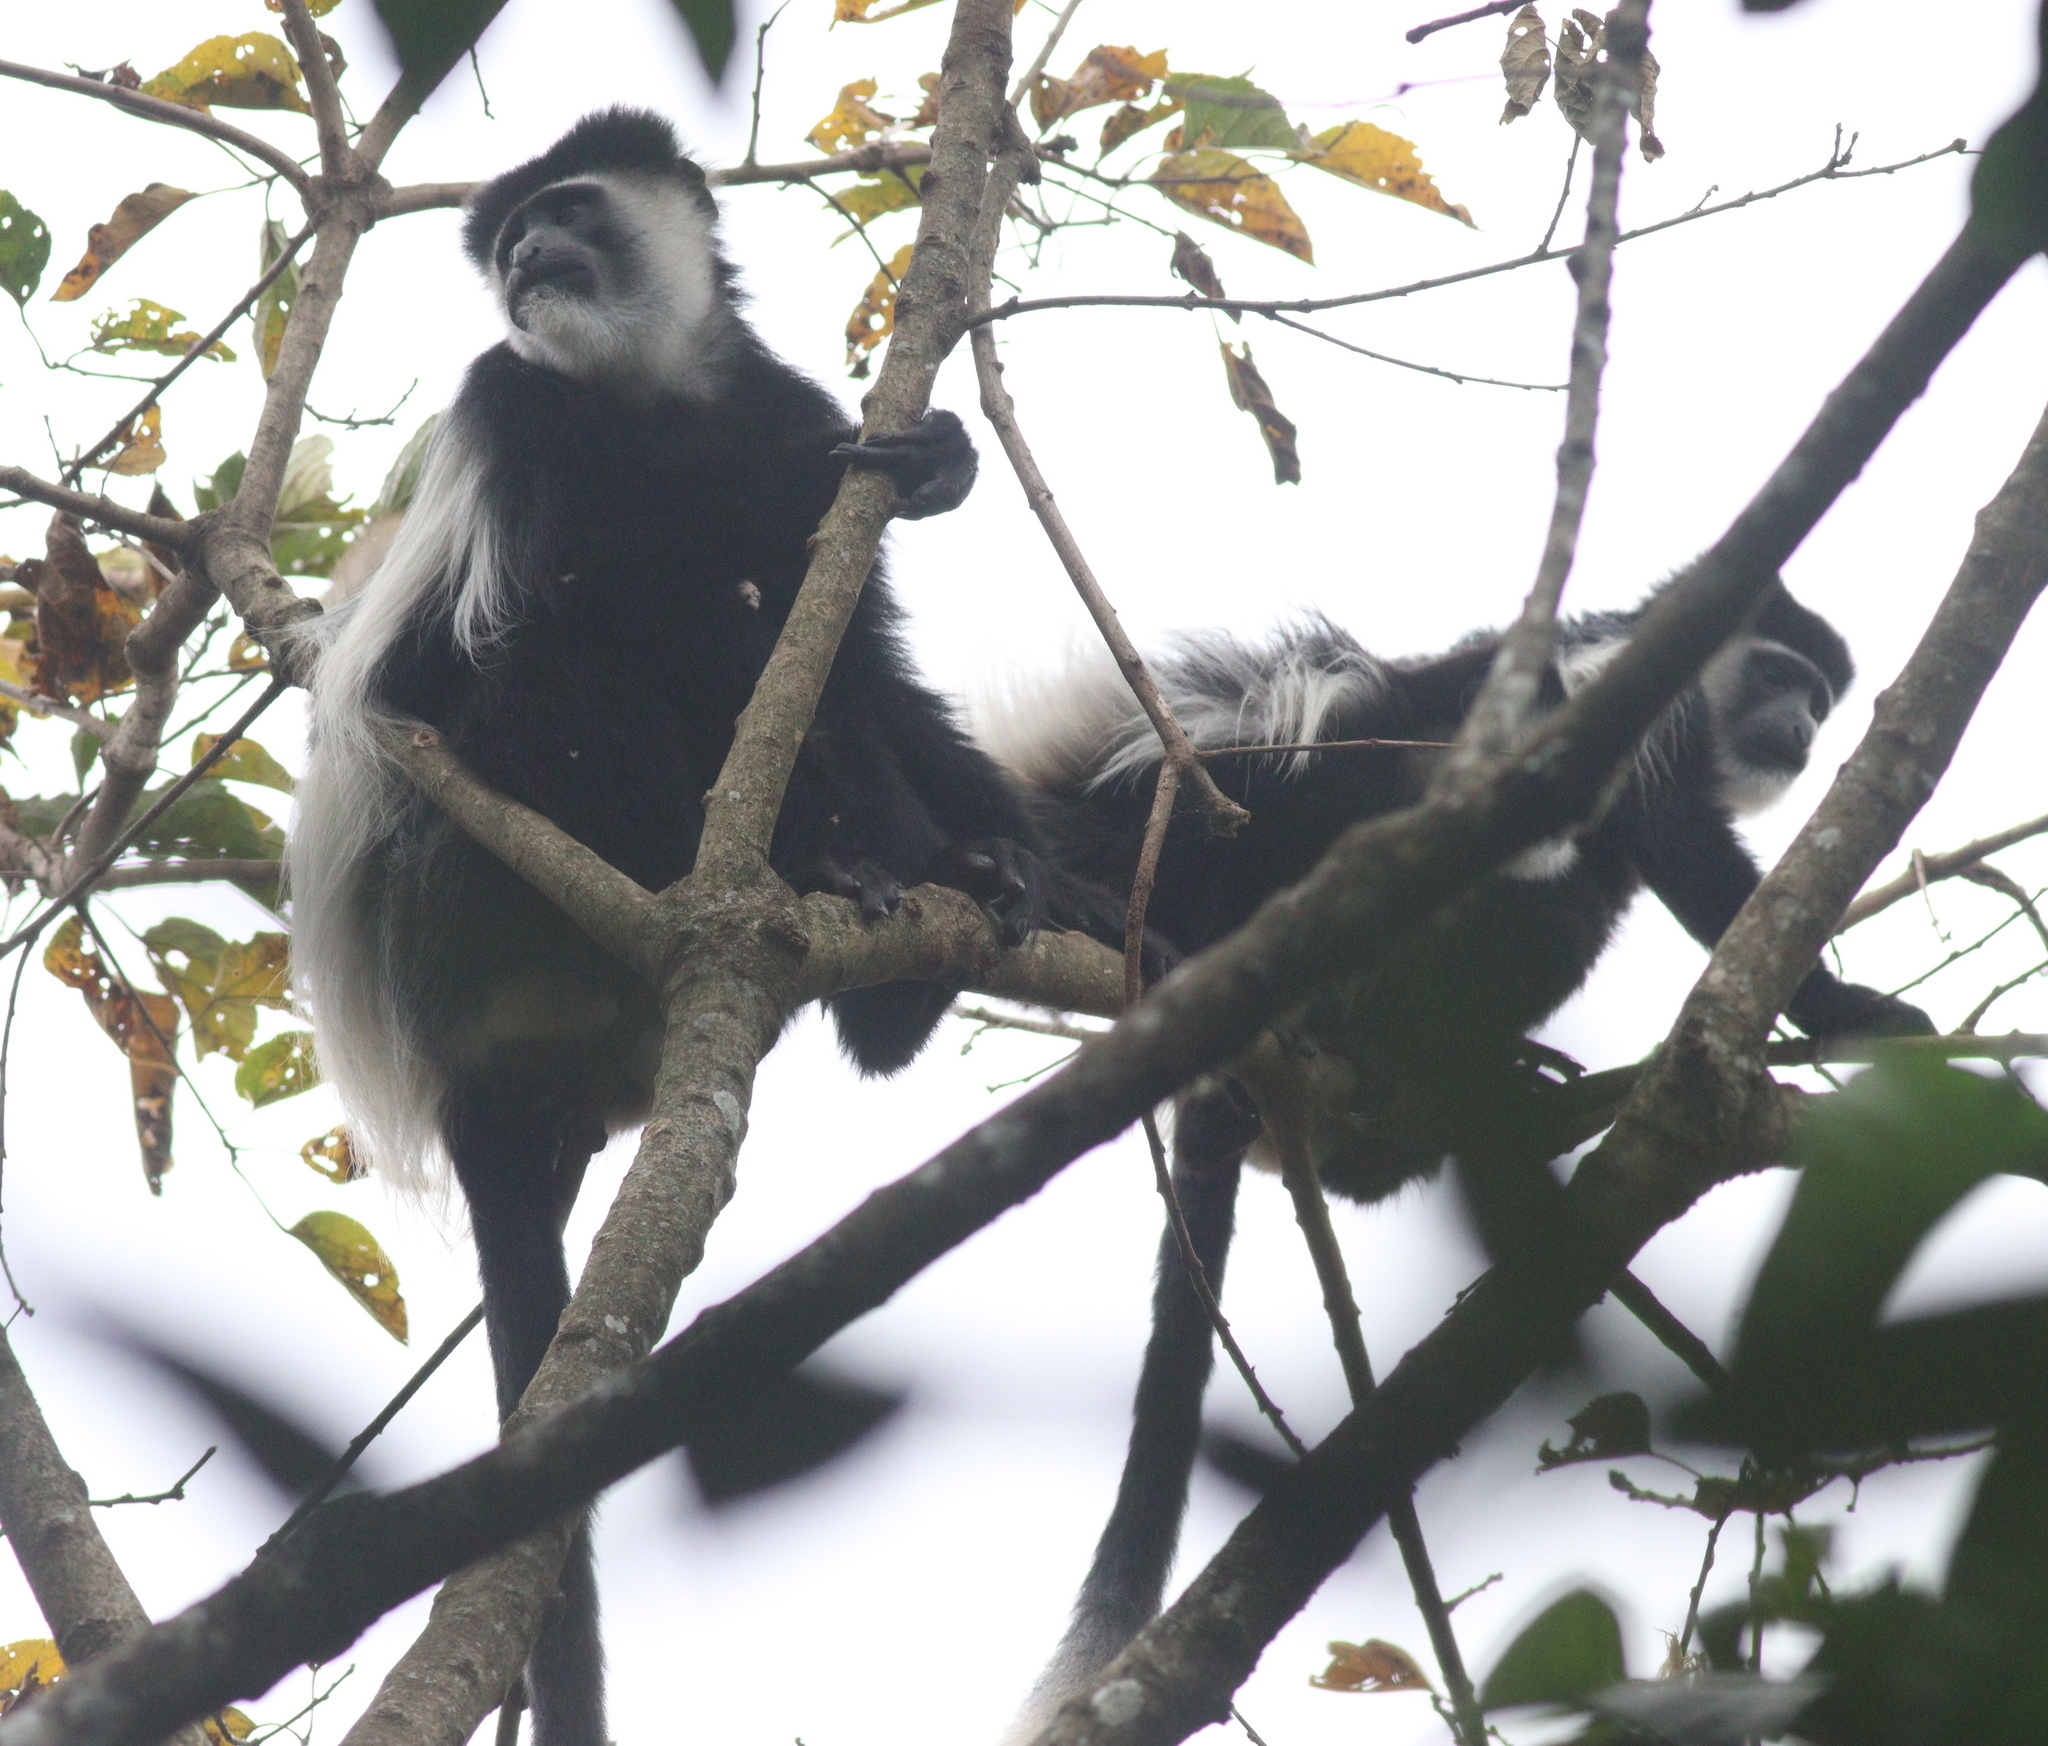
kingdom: Animalia
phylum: Chordata
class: Mammalia
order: Primates
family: Cercopithecidae
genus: Colobus
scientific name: Colobus guereza
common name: Mantled guereza
